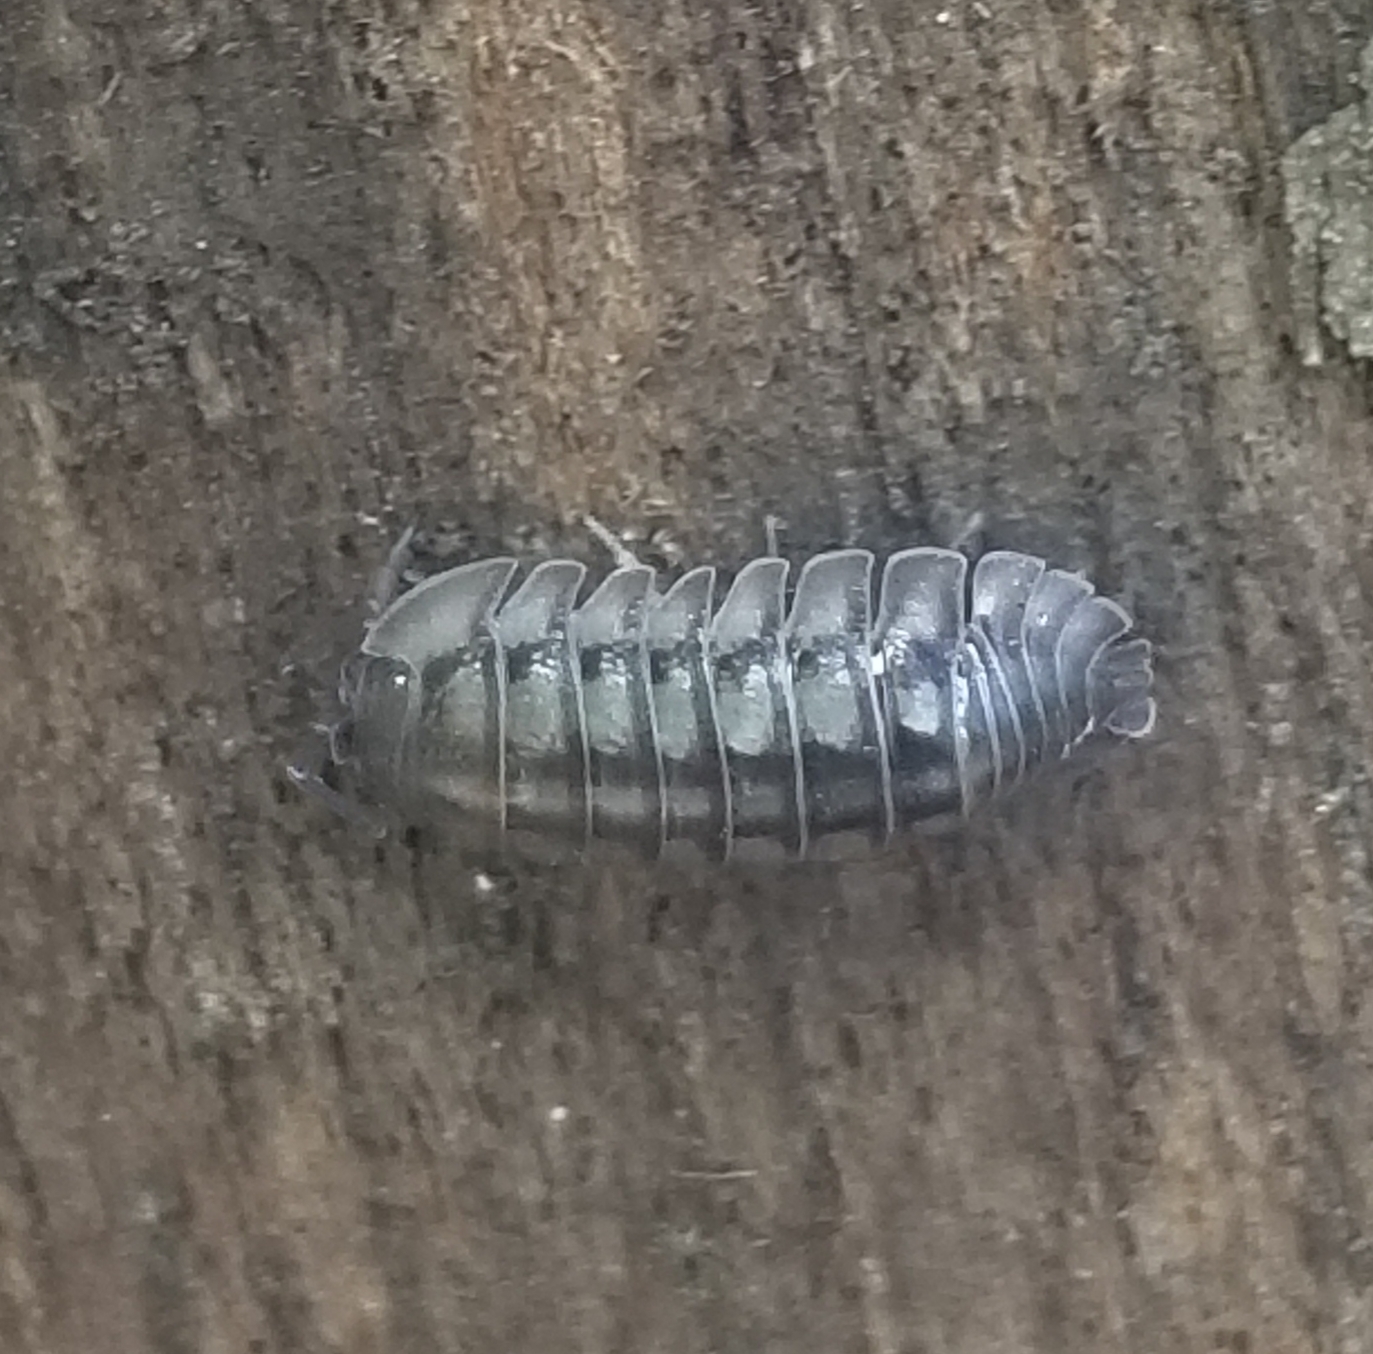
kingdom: Animalia
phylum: Arthropoda
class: Malacostraca
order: Isopoda
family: Armadillidiidae
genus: Armadillidium
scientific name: Armadillidium nasatum
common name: Isopod
